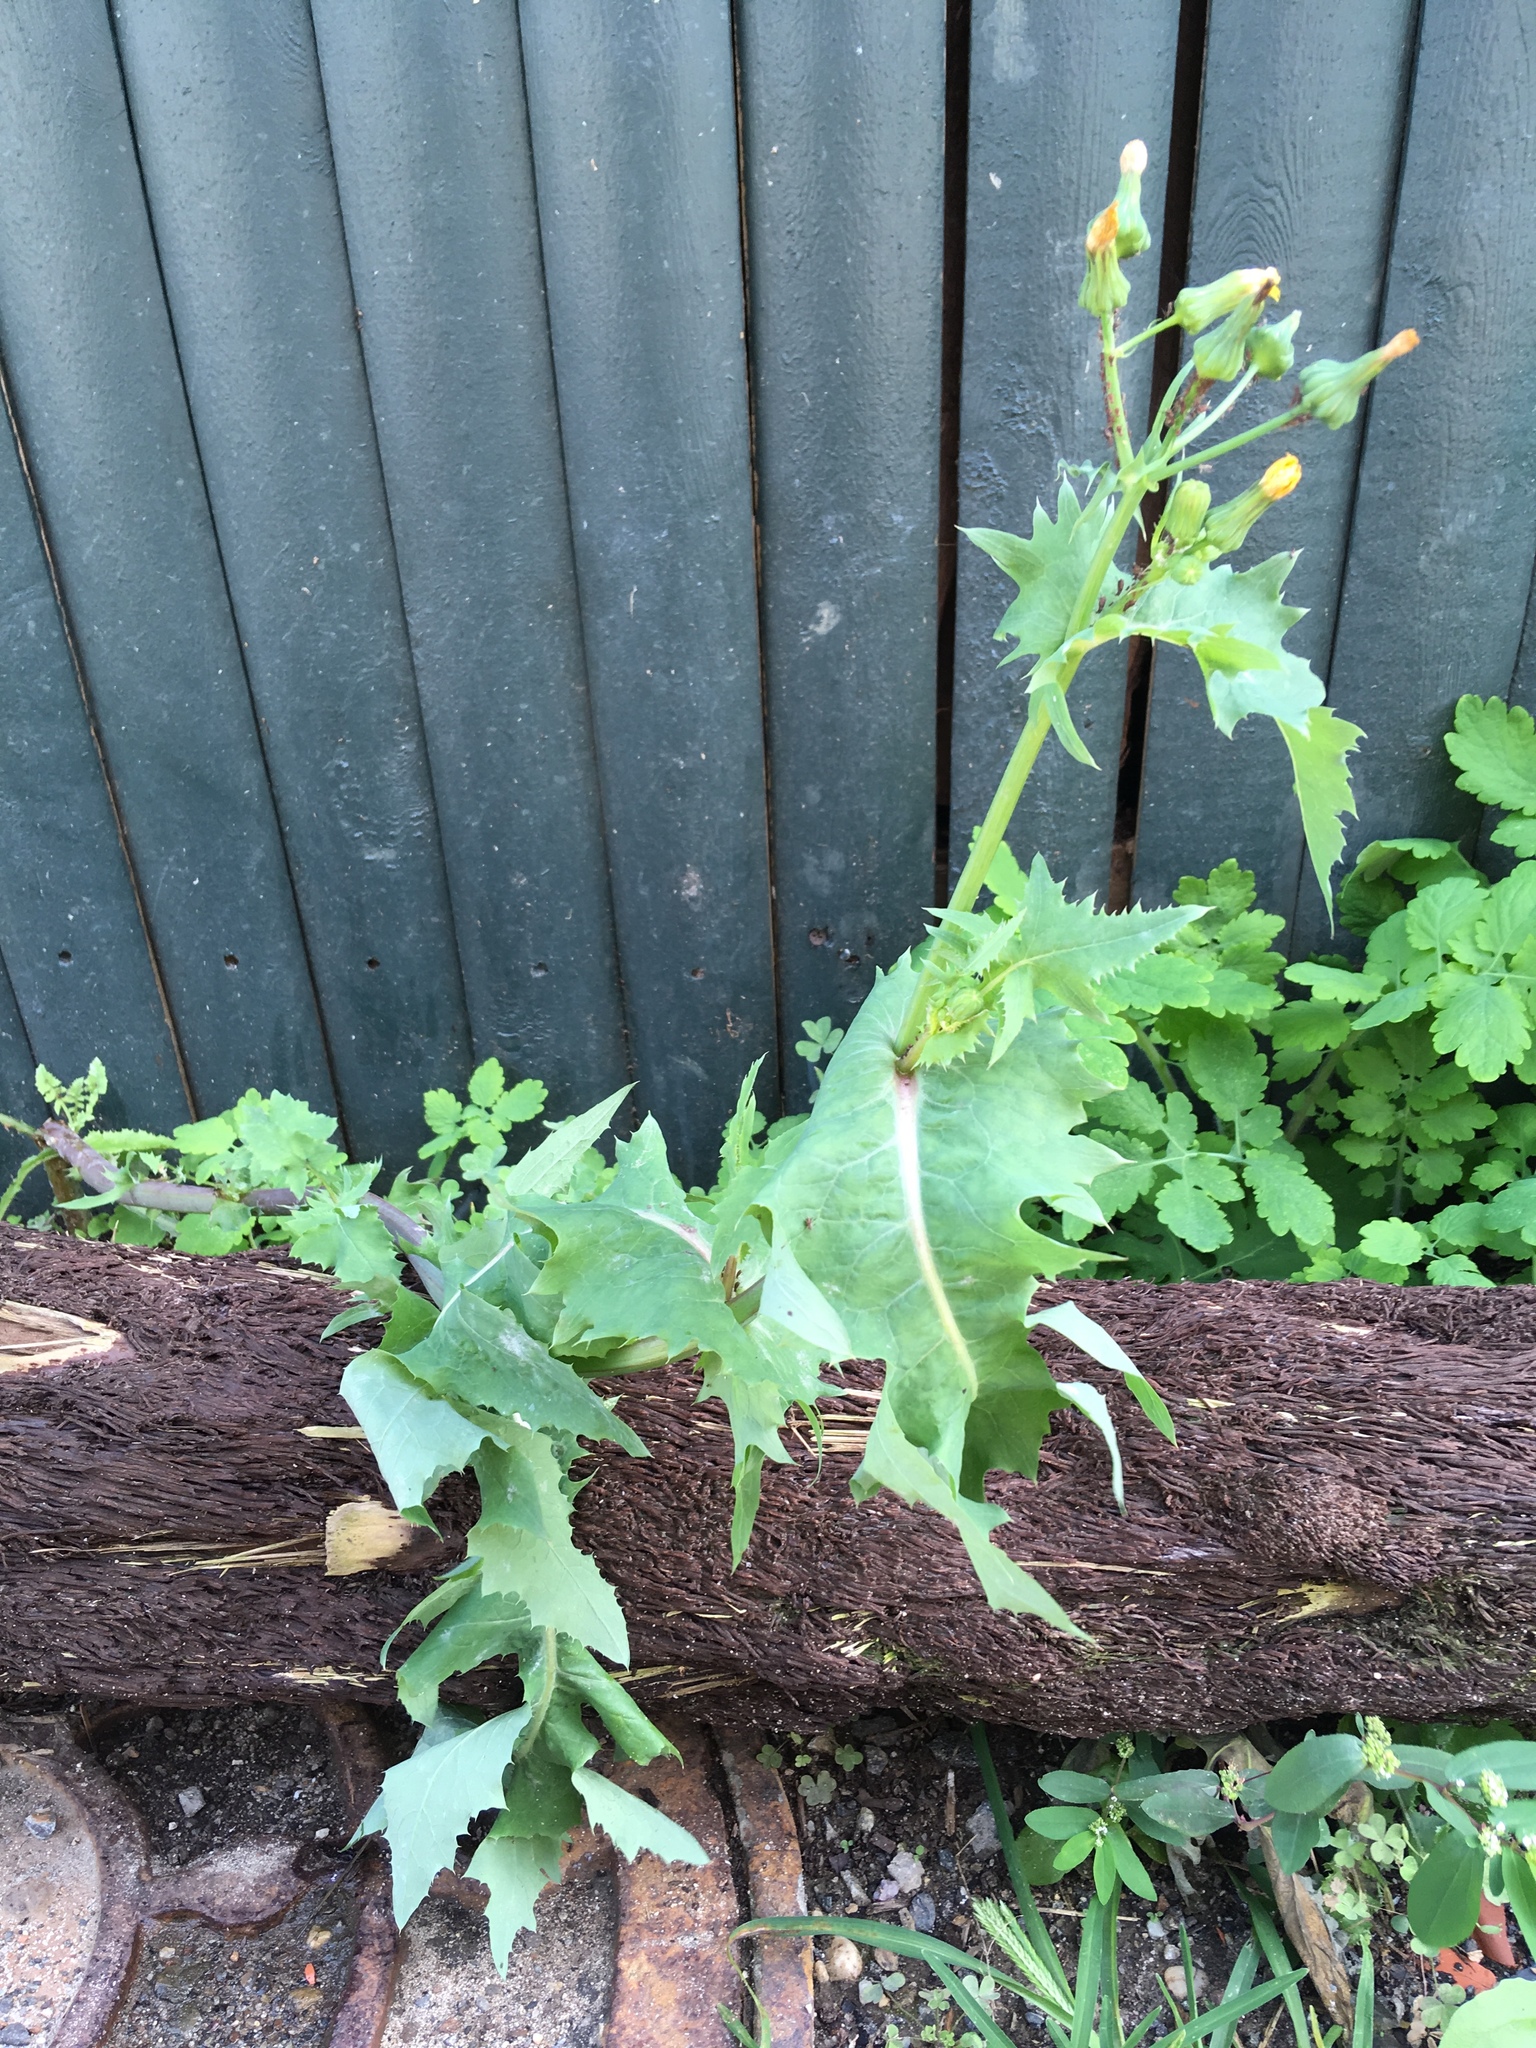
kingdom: Plantae
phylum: Tracheophyta
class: Magnoliopsida
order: Asterales
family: Asteraceae
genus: Sonchus
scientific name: Sonchus oleraceus
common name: Common sowthistle
